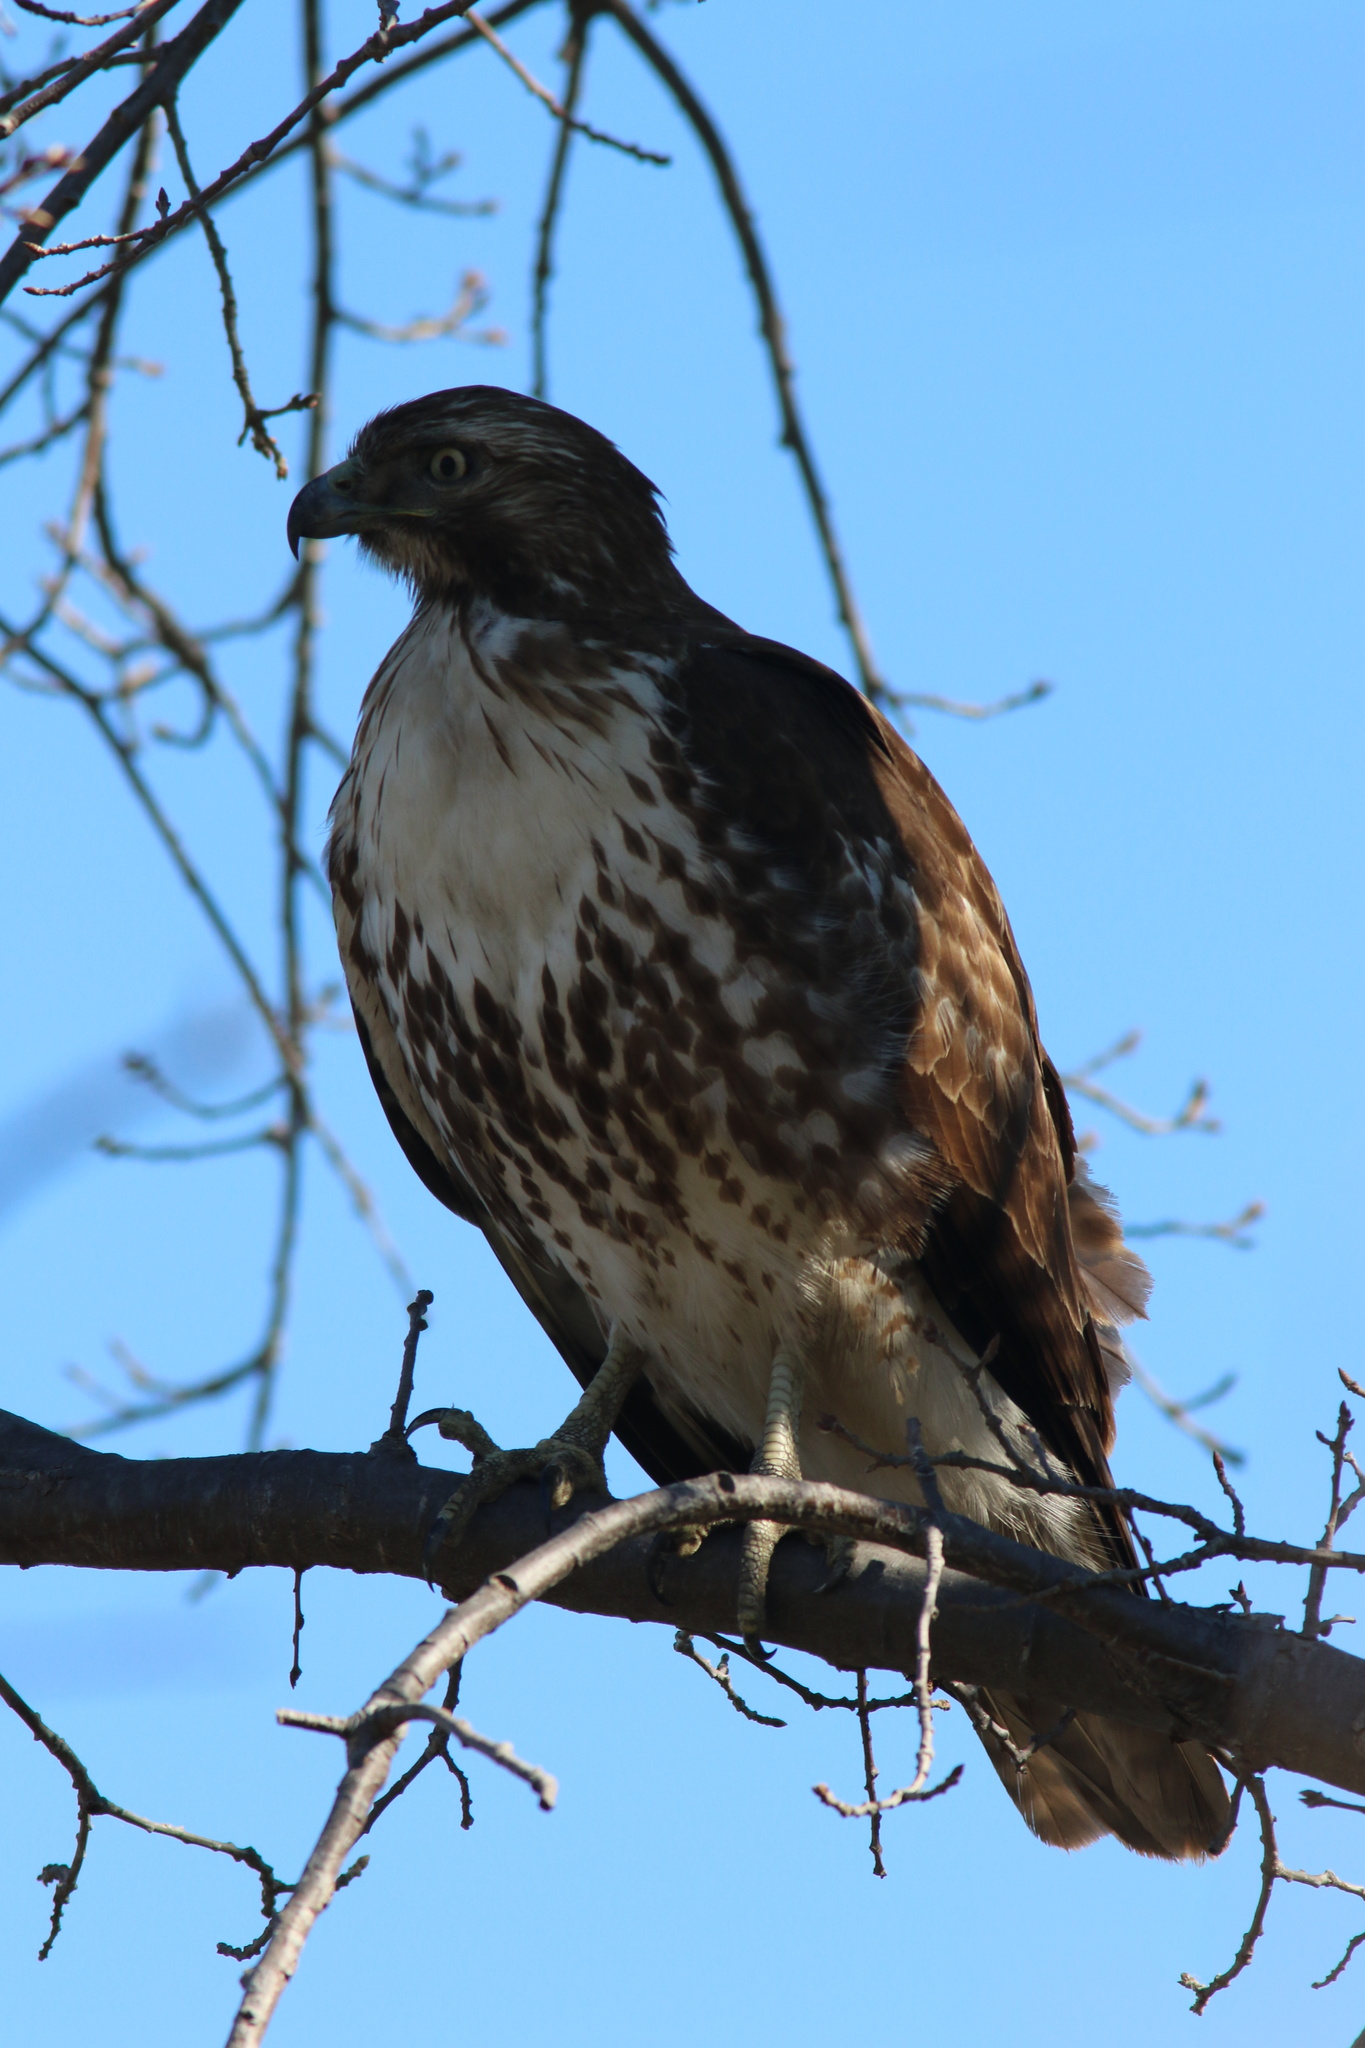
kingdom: Animalia
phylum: Chordata
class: Aves
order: Accipitriformes
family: Accipitridae
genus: Buteo
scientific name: Buteo jamaicensis
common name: Red-tailed hawk
